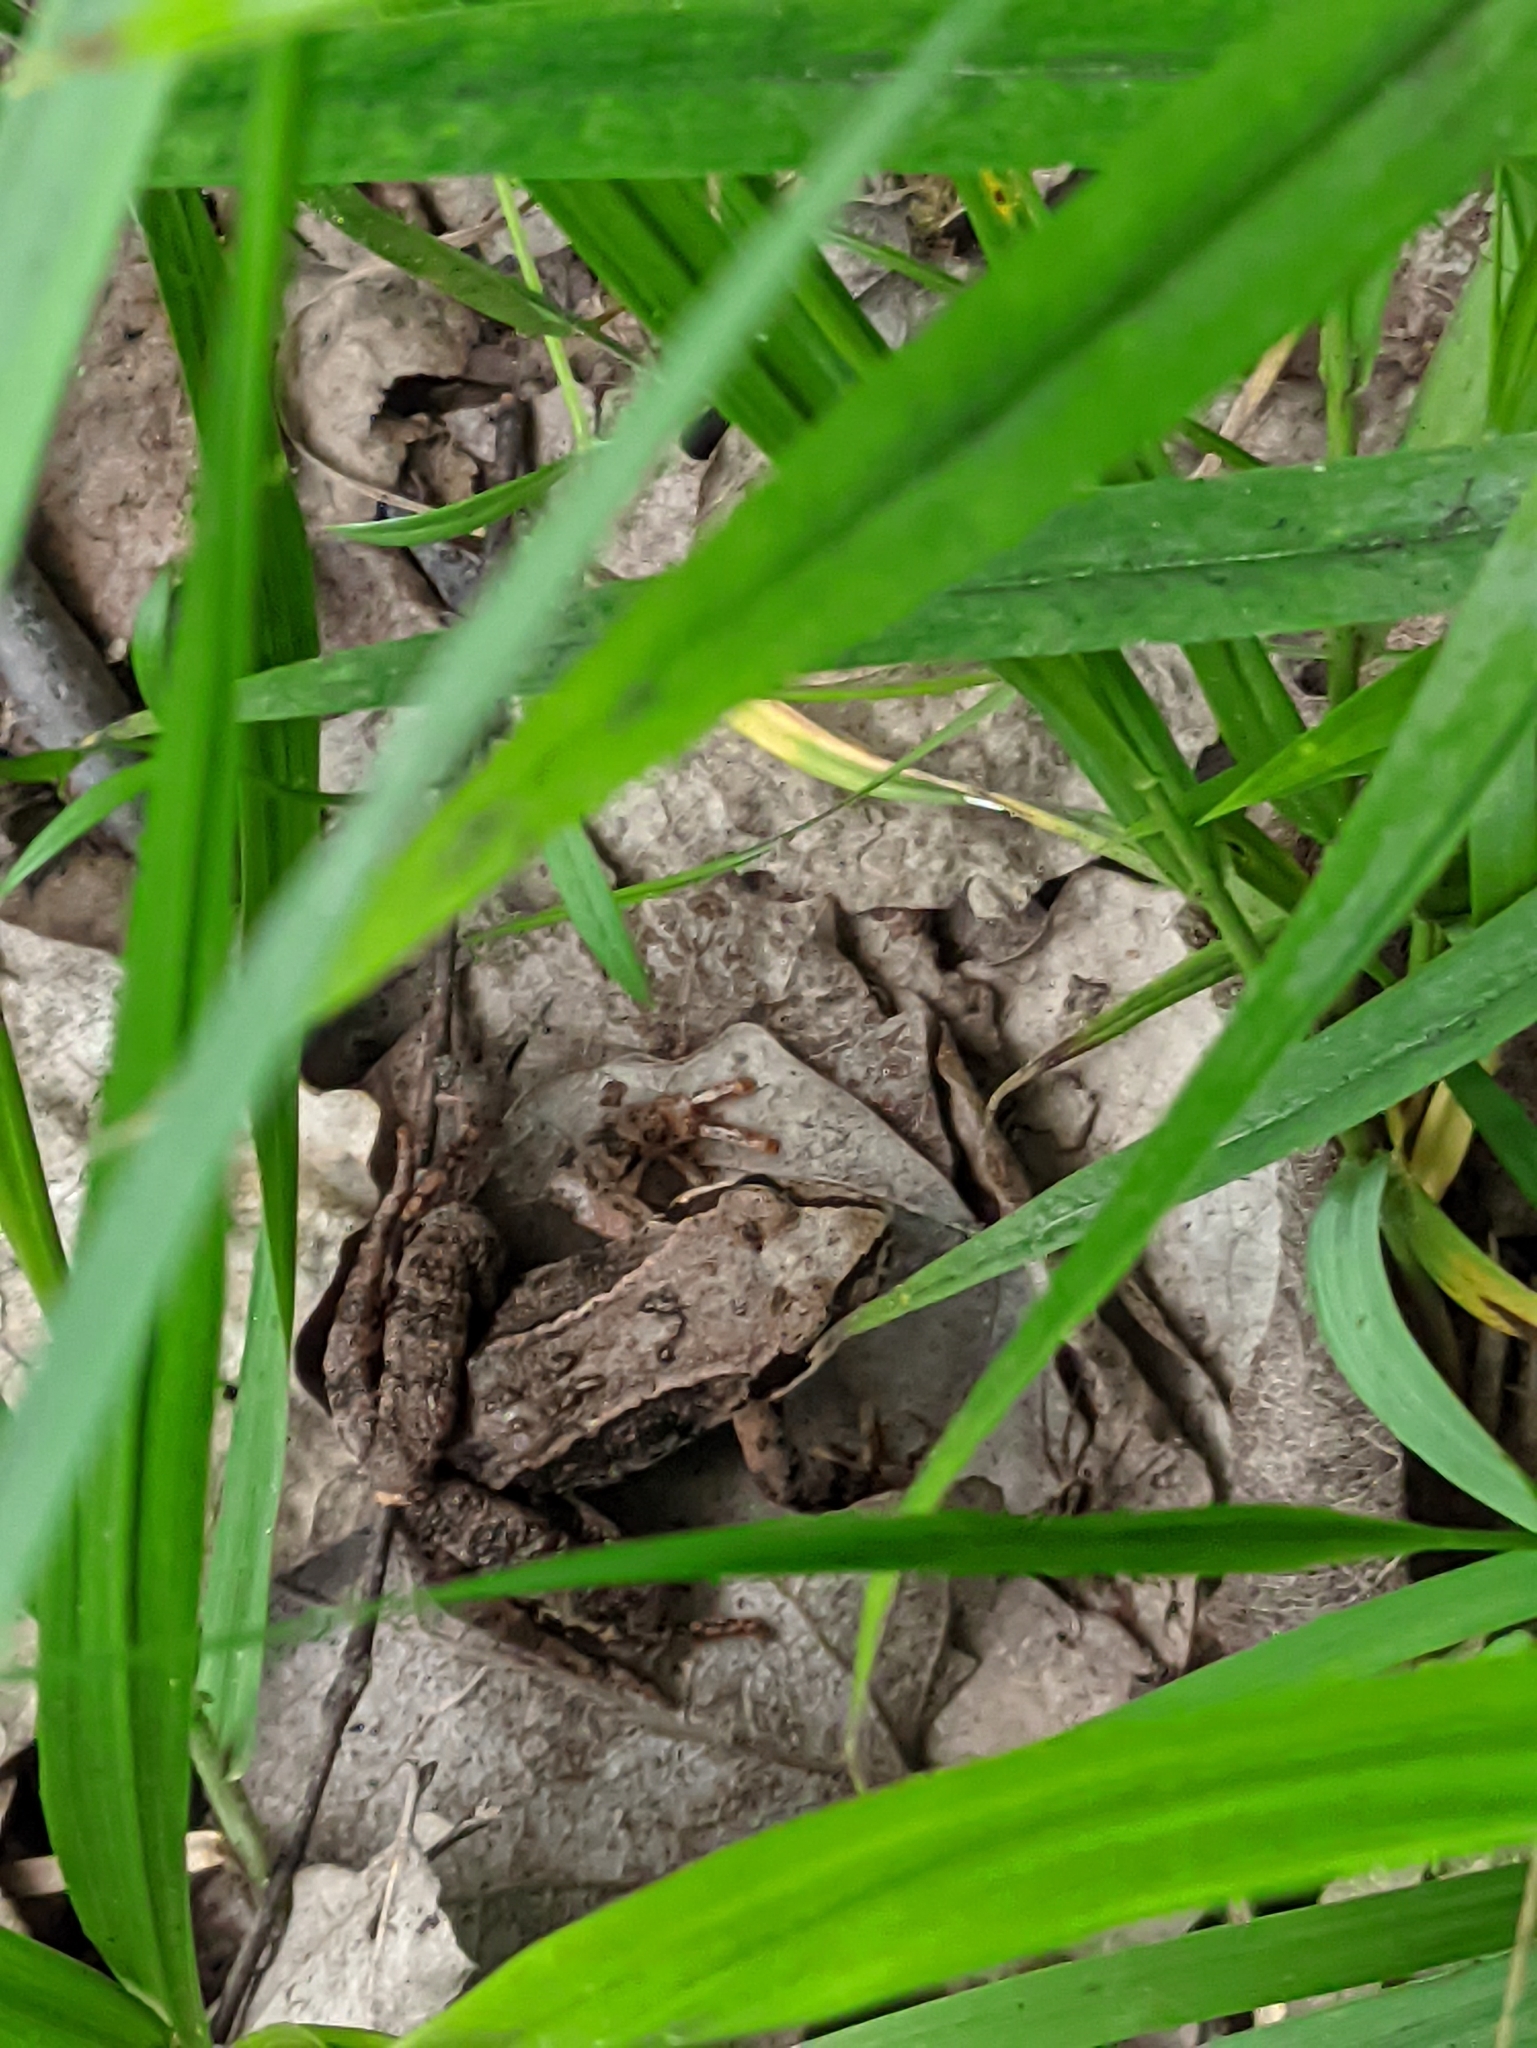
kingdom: Animalia
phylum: Chordata
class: Amphibia
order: Anura
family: Ranidae
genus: Rana
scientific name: Rana arvalis
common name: Moor frog
